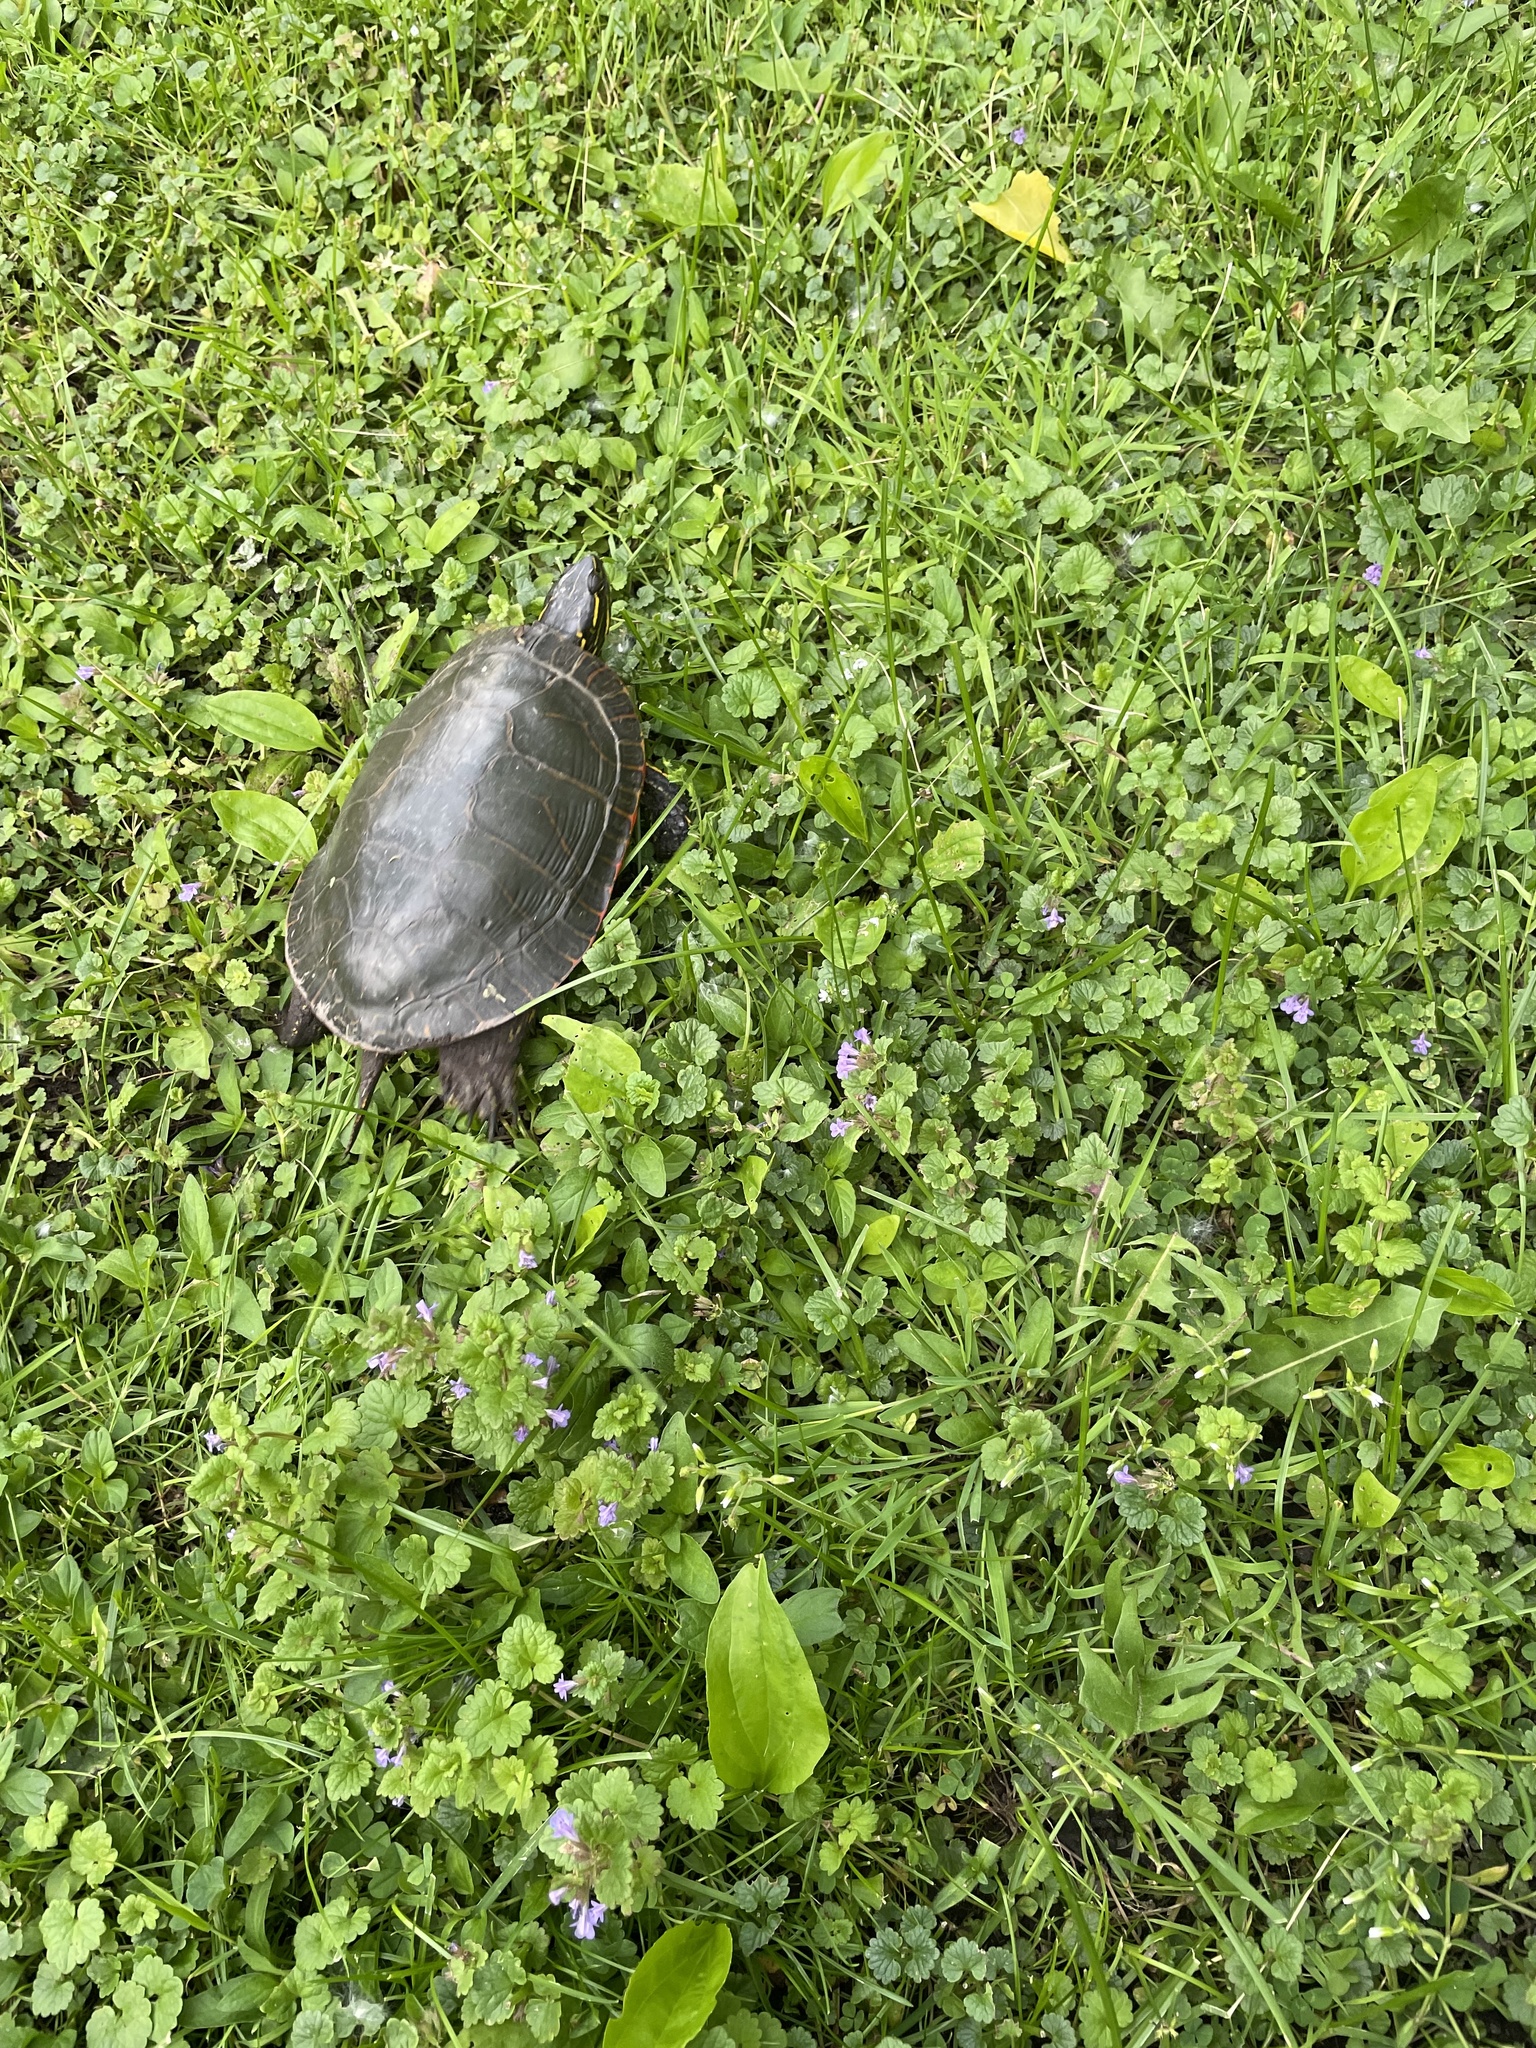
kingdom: Animalia
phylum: Chordata
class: Testudines
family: Emydidae
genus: Chrysemys
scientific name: Chrysemys picta
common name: Painted turtle
